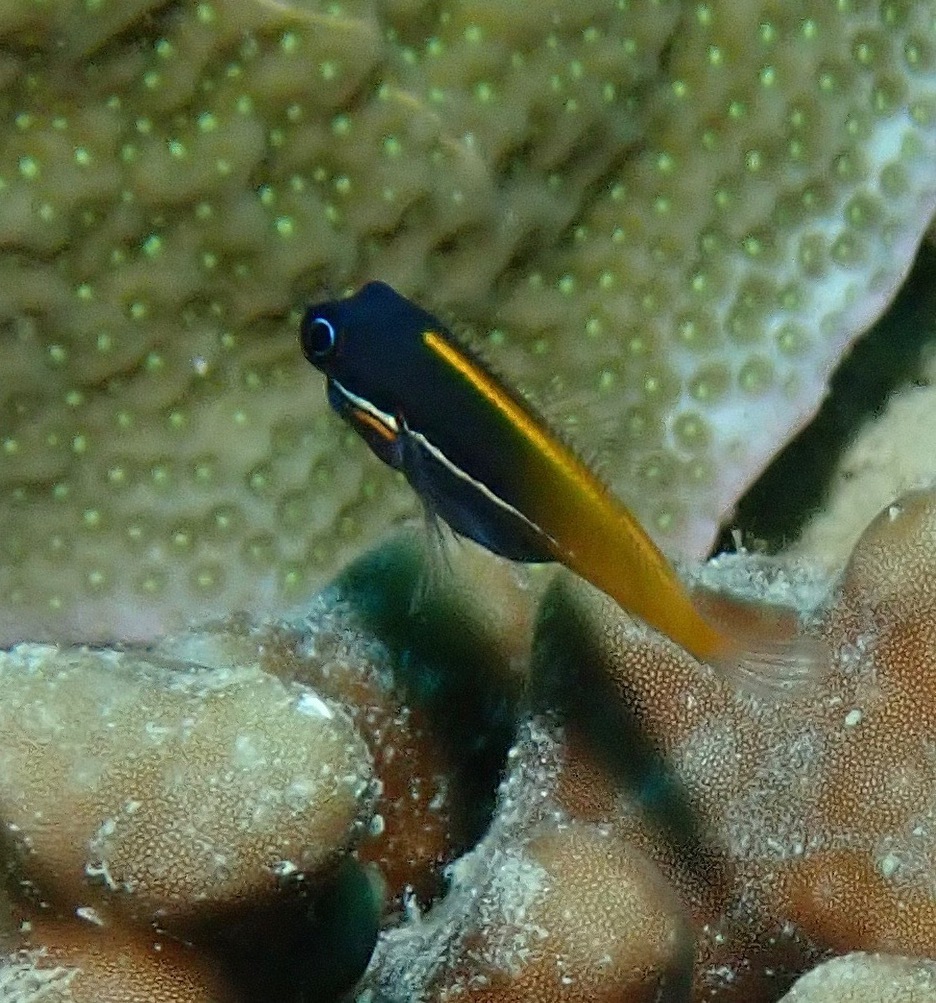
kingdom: Animalia
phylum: Chordata
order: Perciformes
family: Blenniidae
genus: Ecsenius
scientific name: Ecsenius tricolor
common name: Derawan combtooth-blenny
